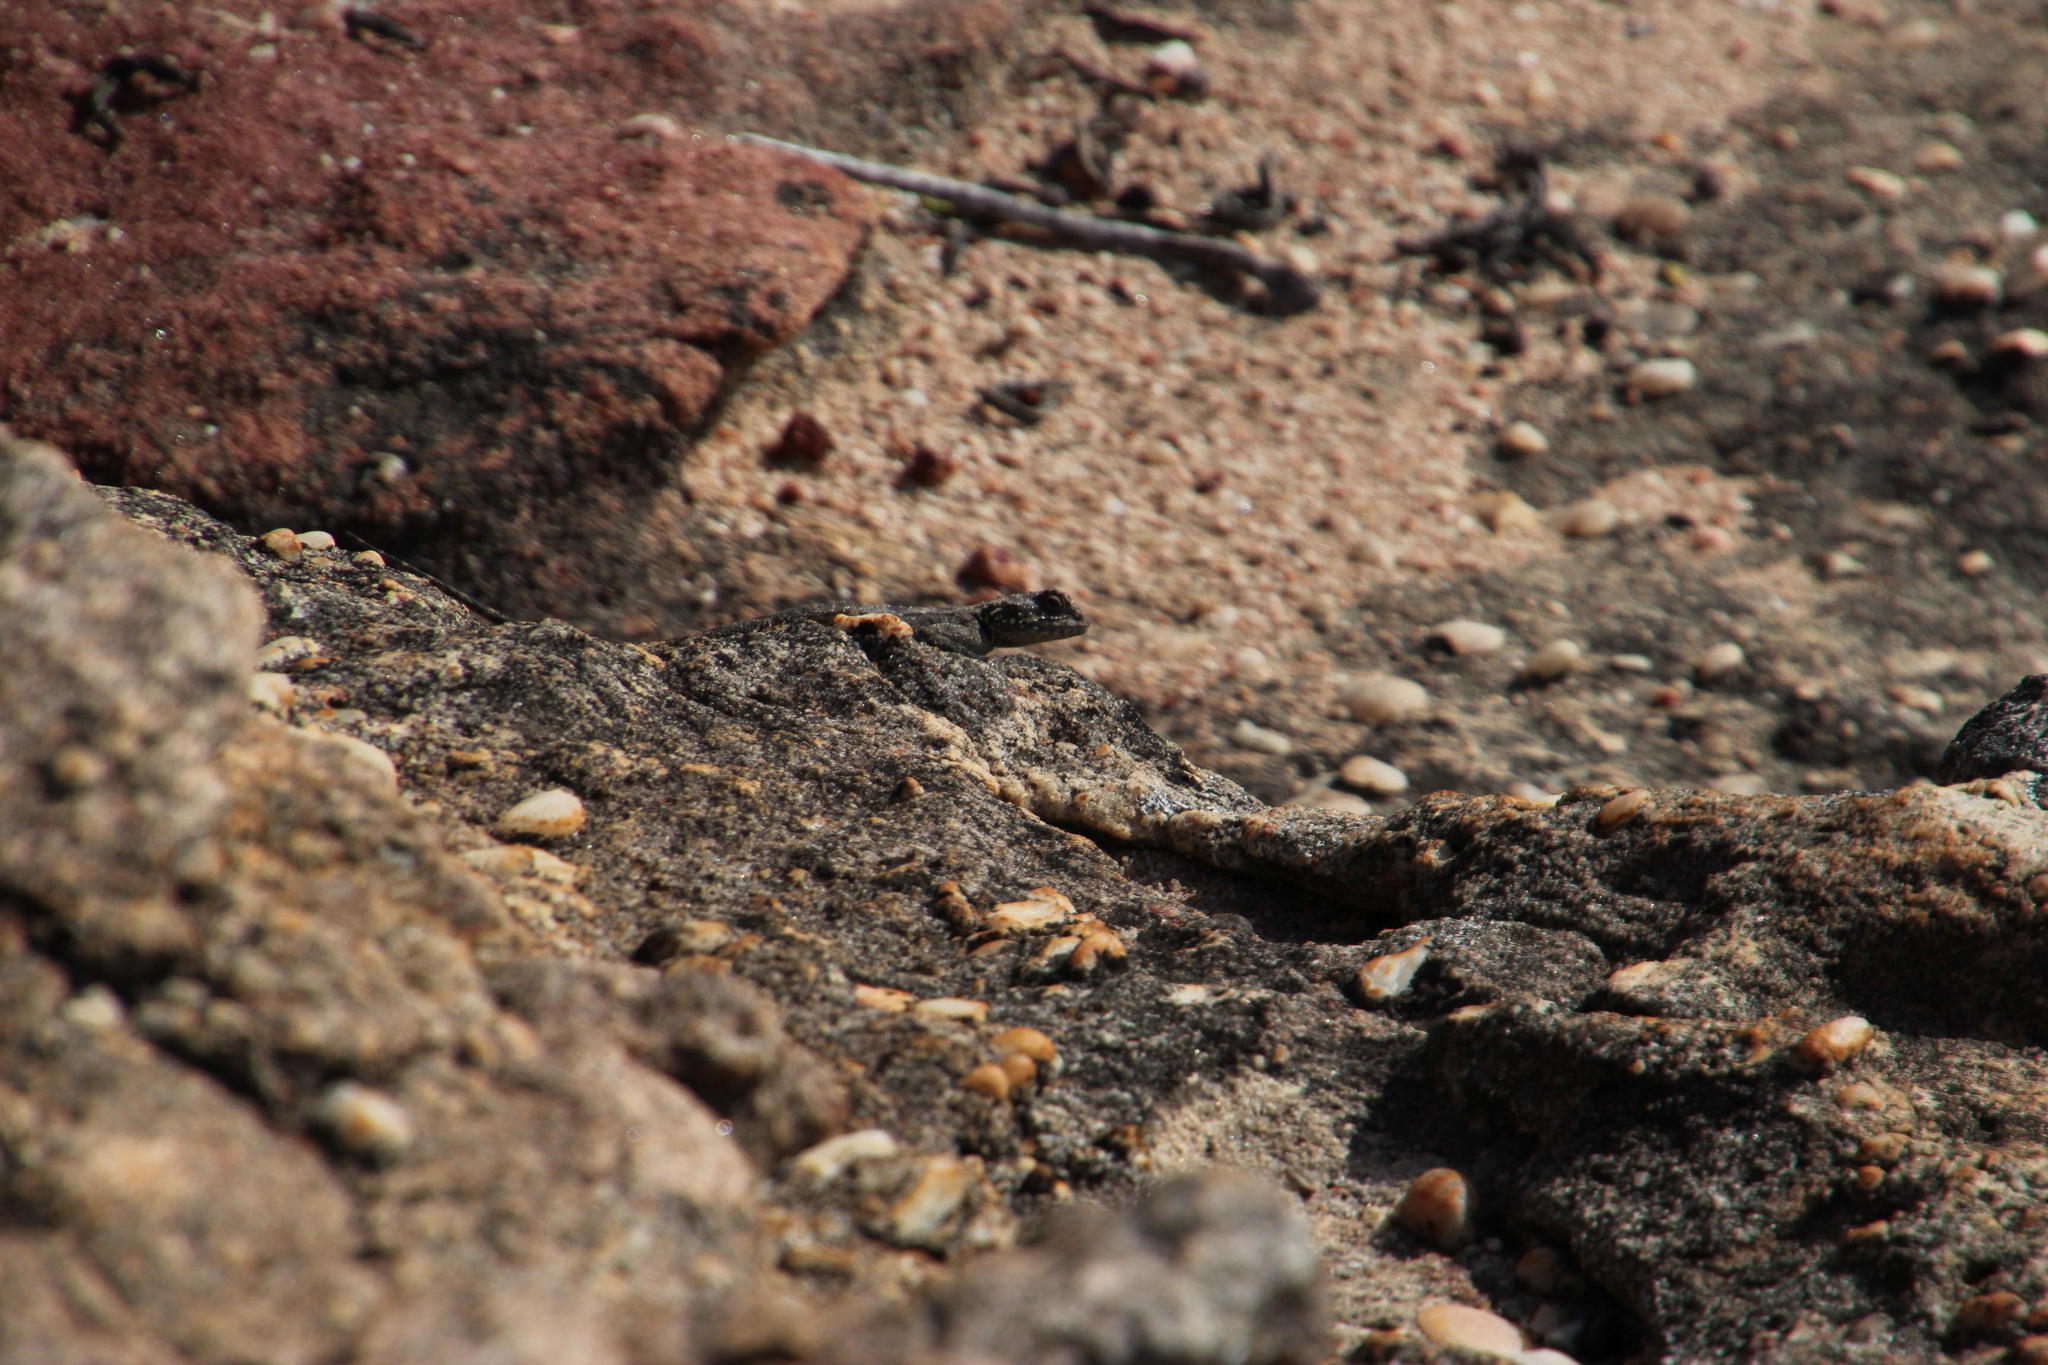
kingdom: Animalia
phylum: Chordata
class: Squamata
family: Agamidae
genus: Agama
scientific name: Agama atra
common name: Southern african rock agama
